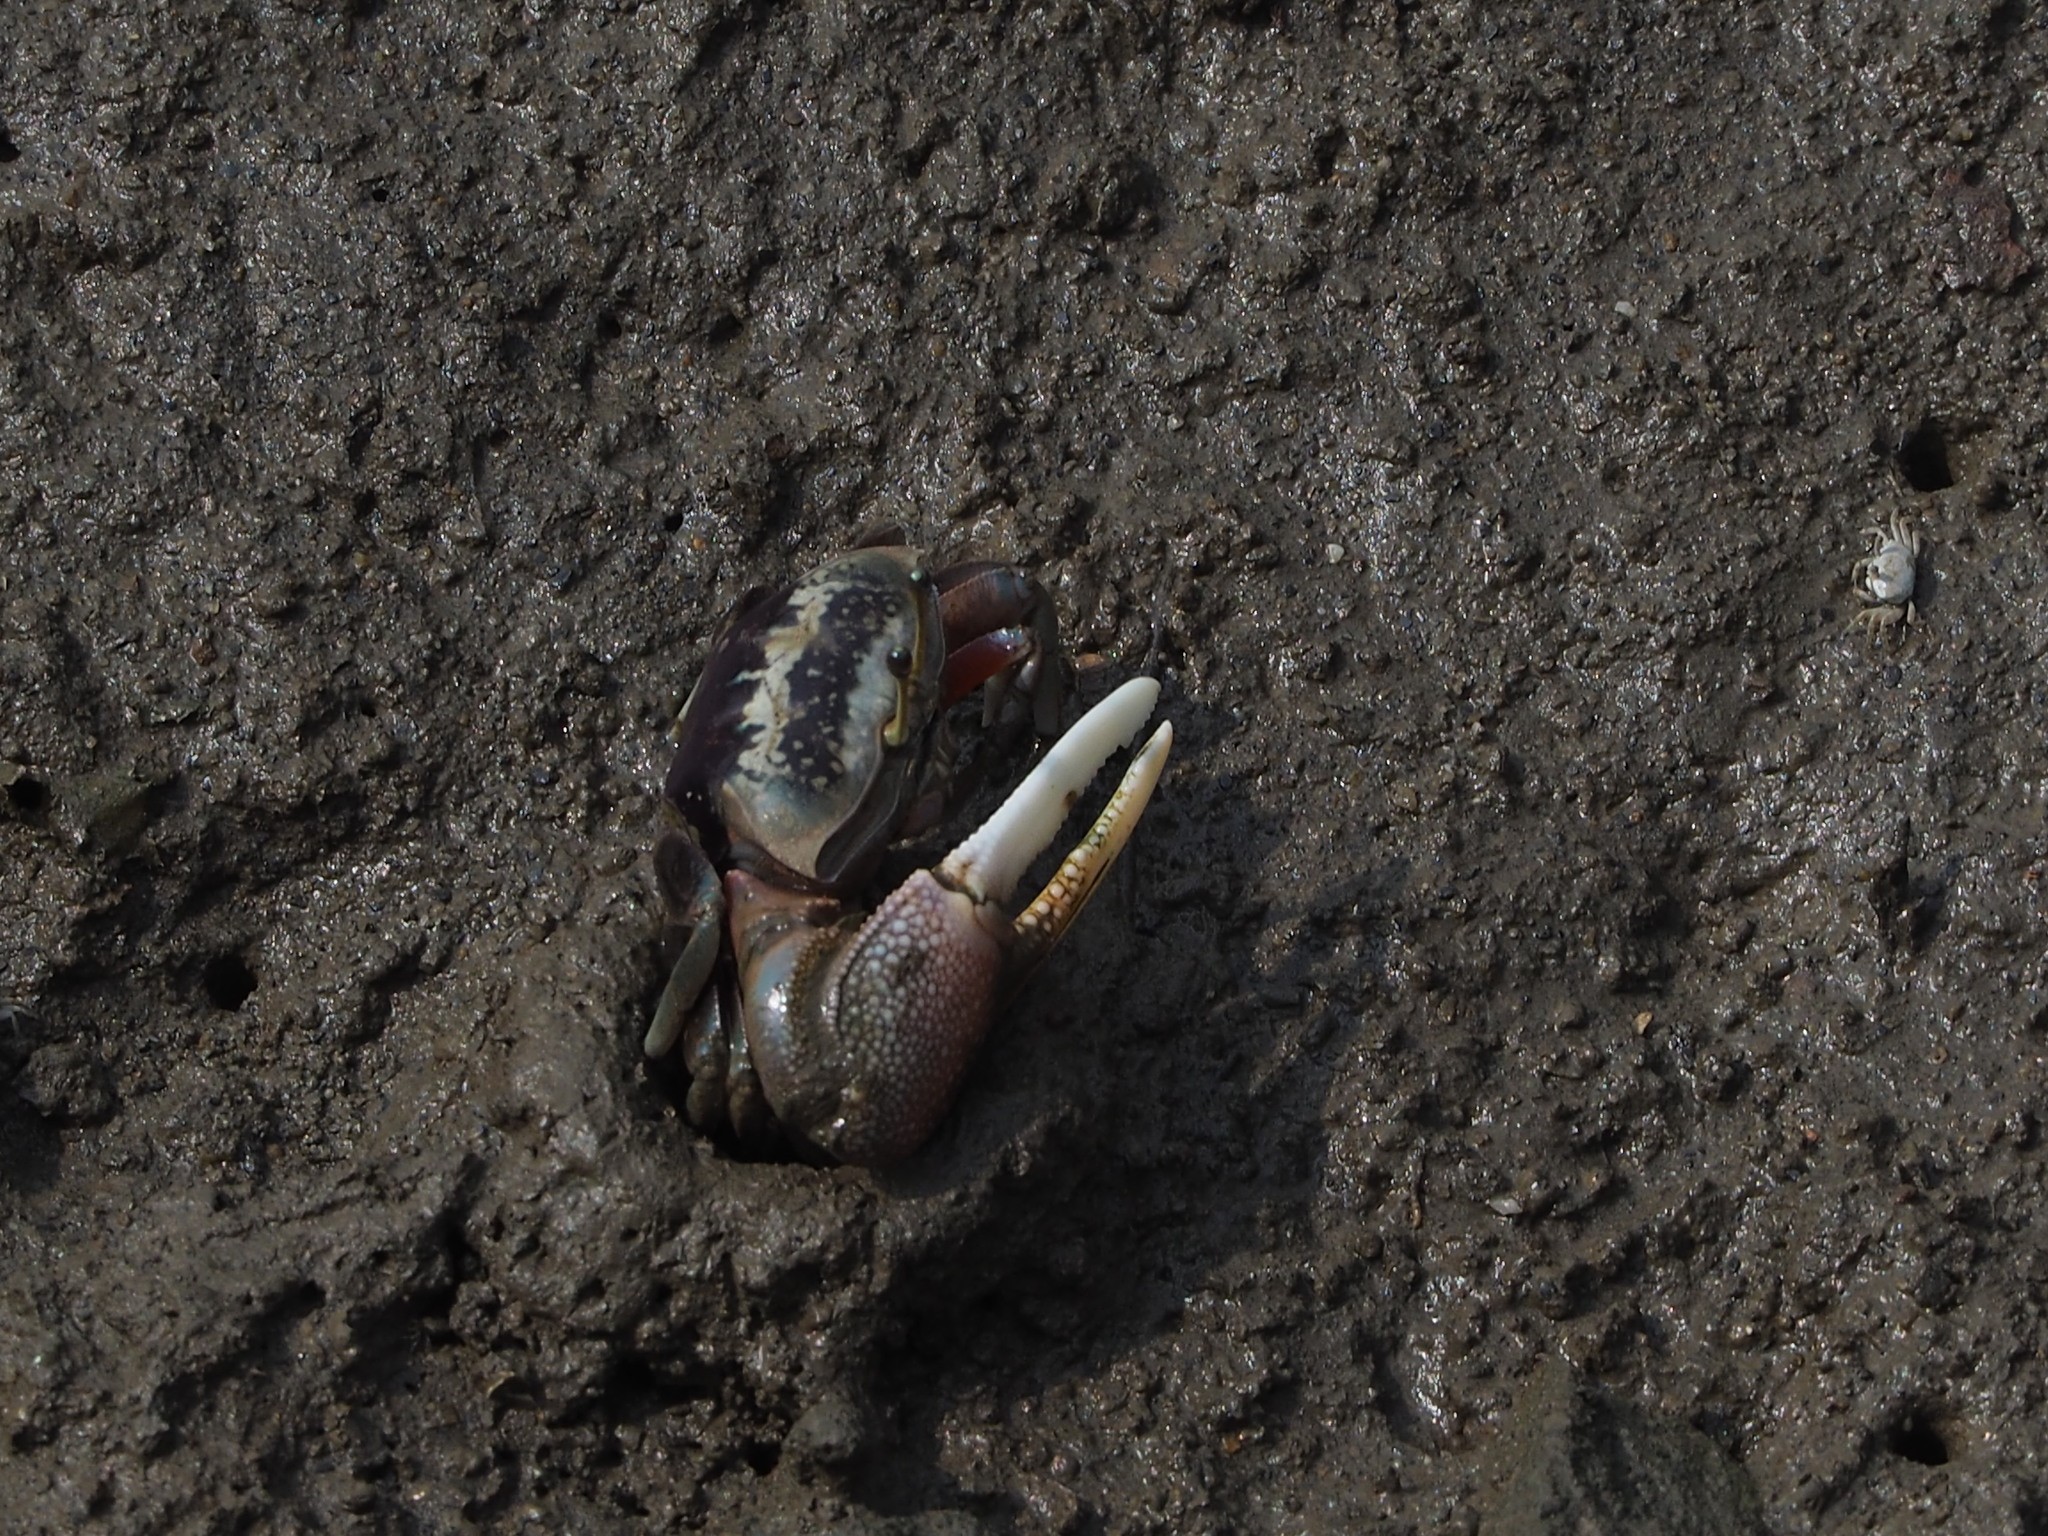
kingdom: Animalia
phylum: Arthropoda
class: Malacostraca
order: Decapoda
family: Ocypodidae
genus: Tubuca
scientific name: Tubuca arcuata
